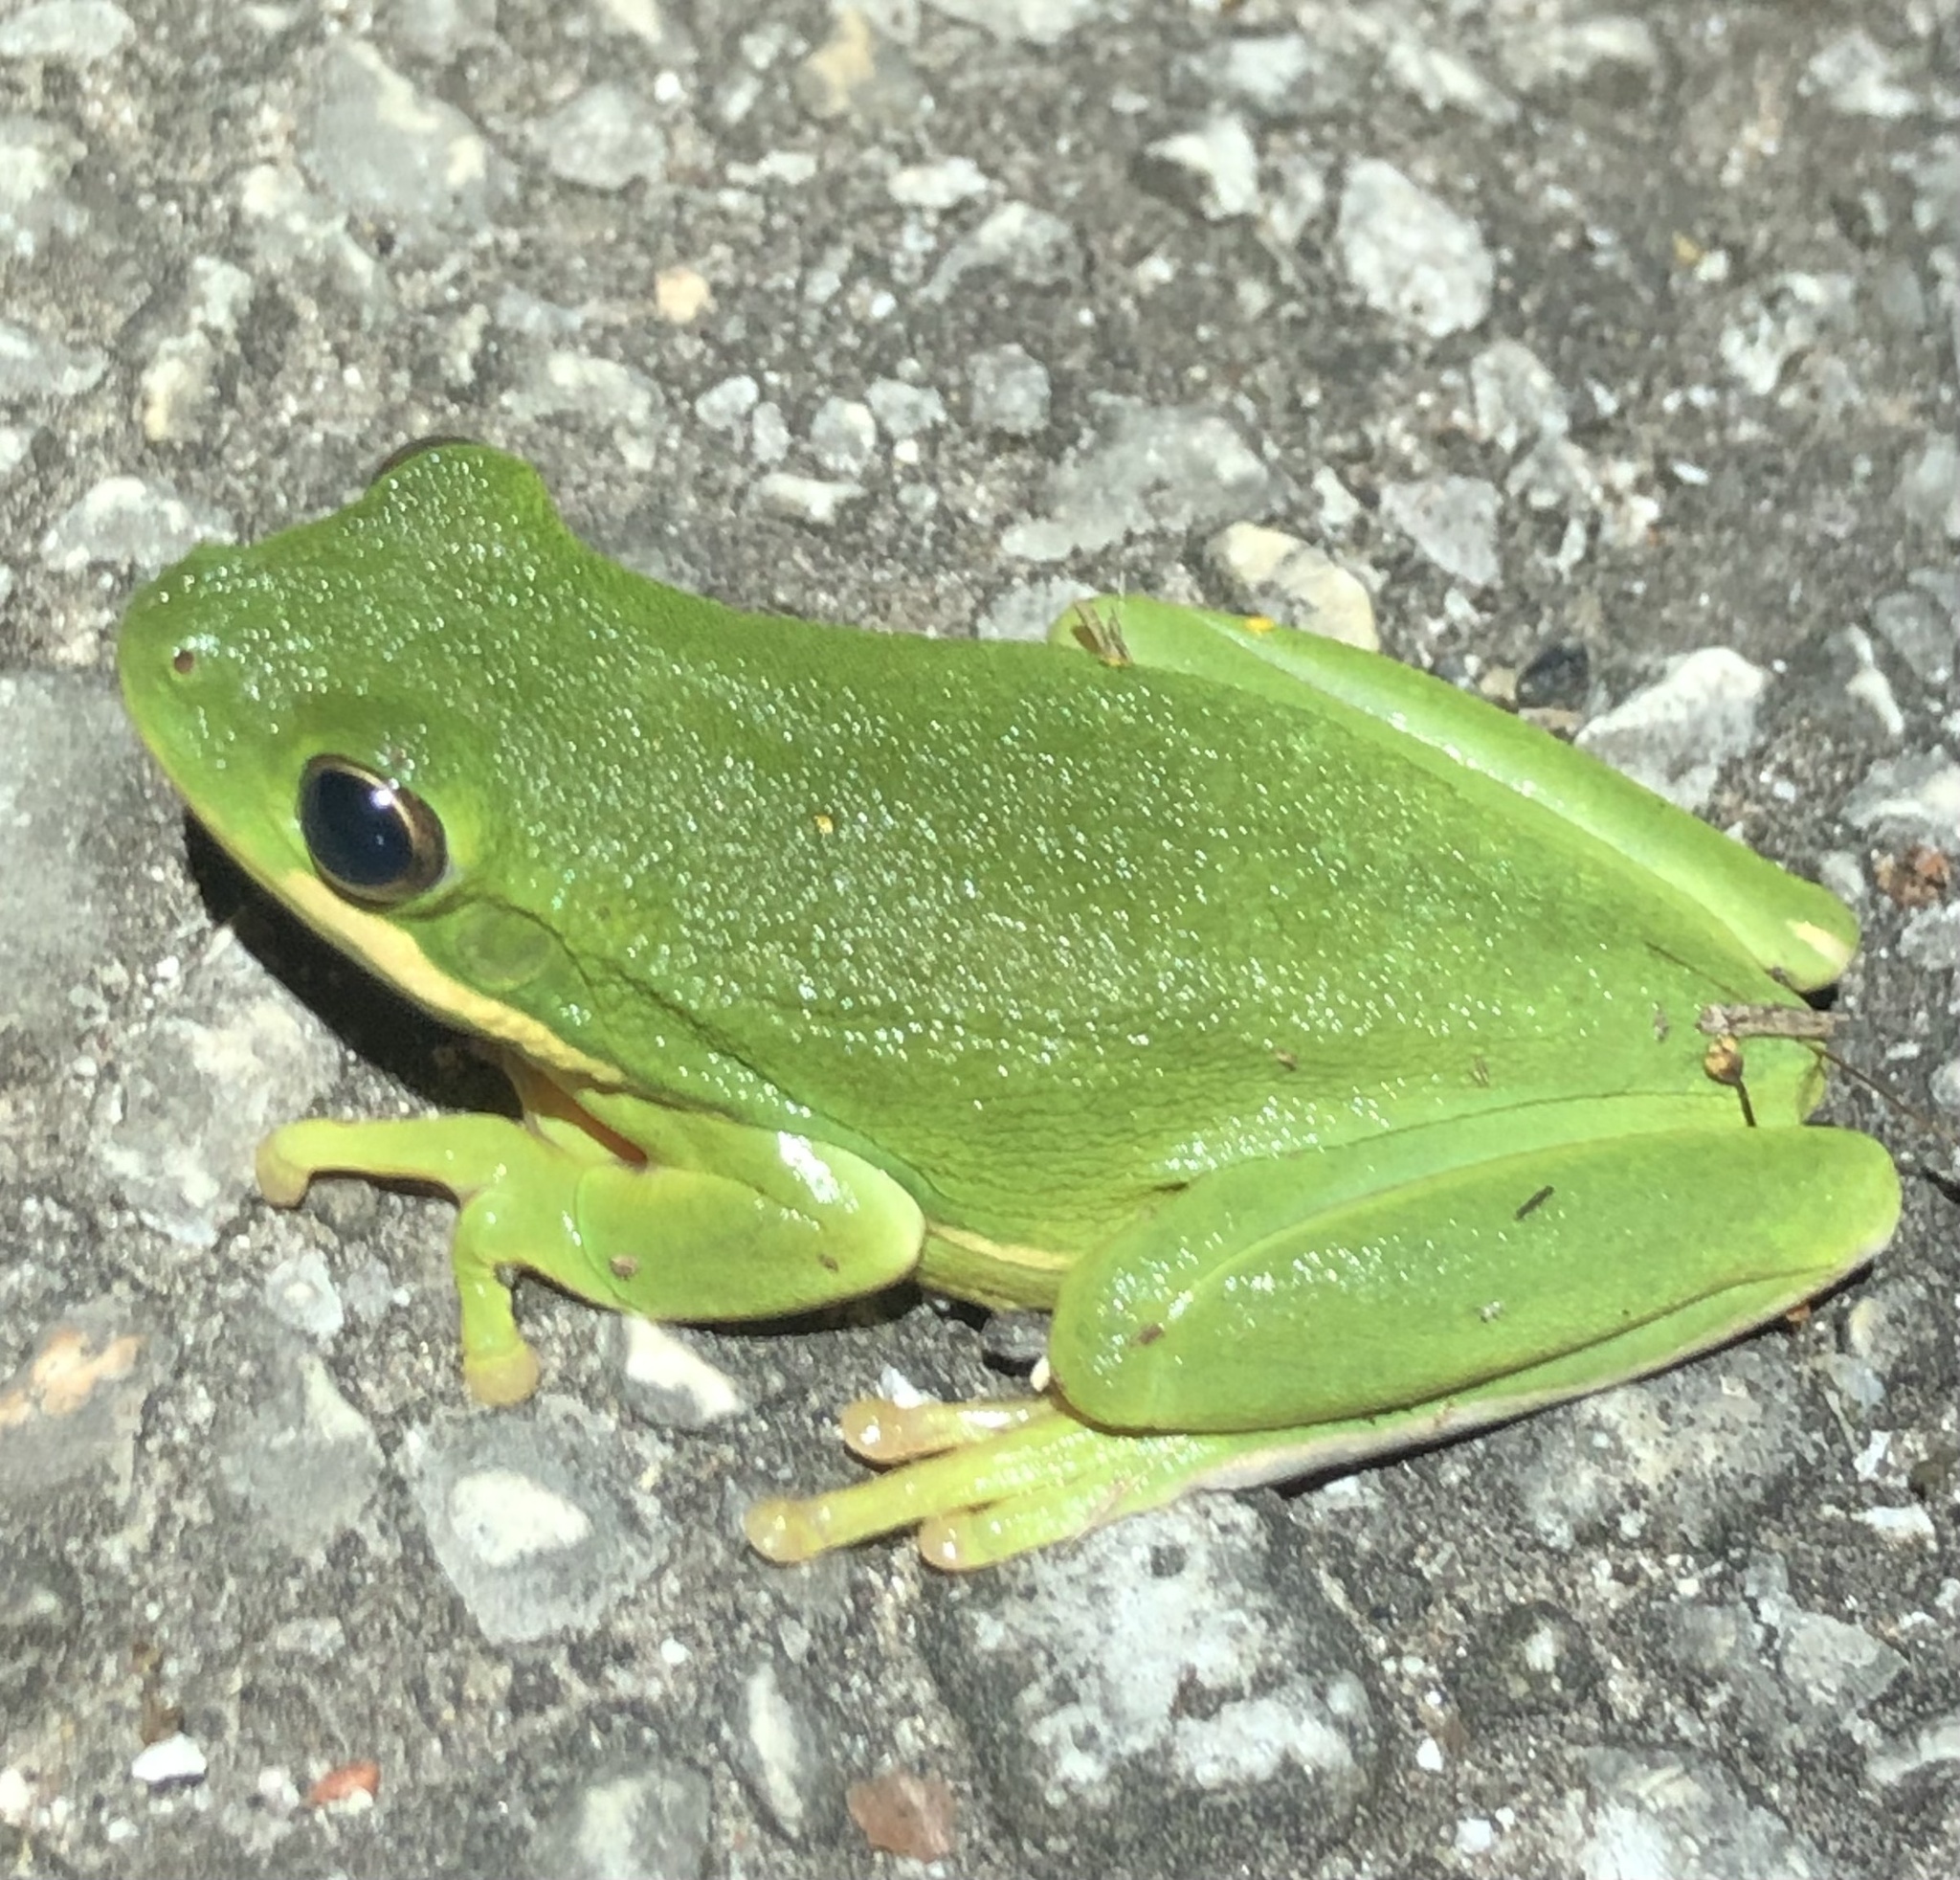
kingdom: Animalia
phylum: Chordata
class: Amphibia
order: Anura
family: Hylidae
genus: Dryophytes
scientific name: Dryophytes cinereus
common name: Green treefrog
